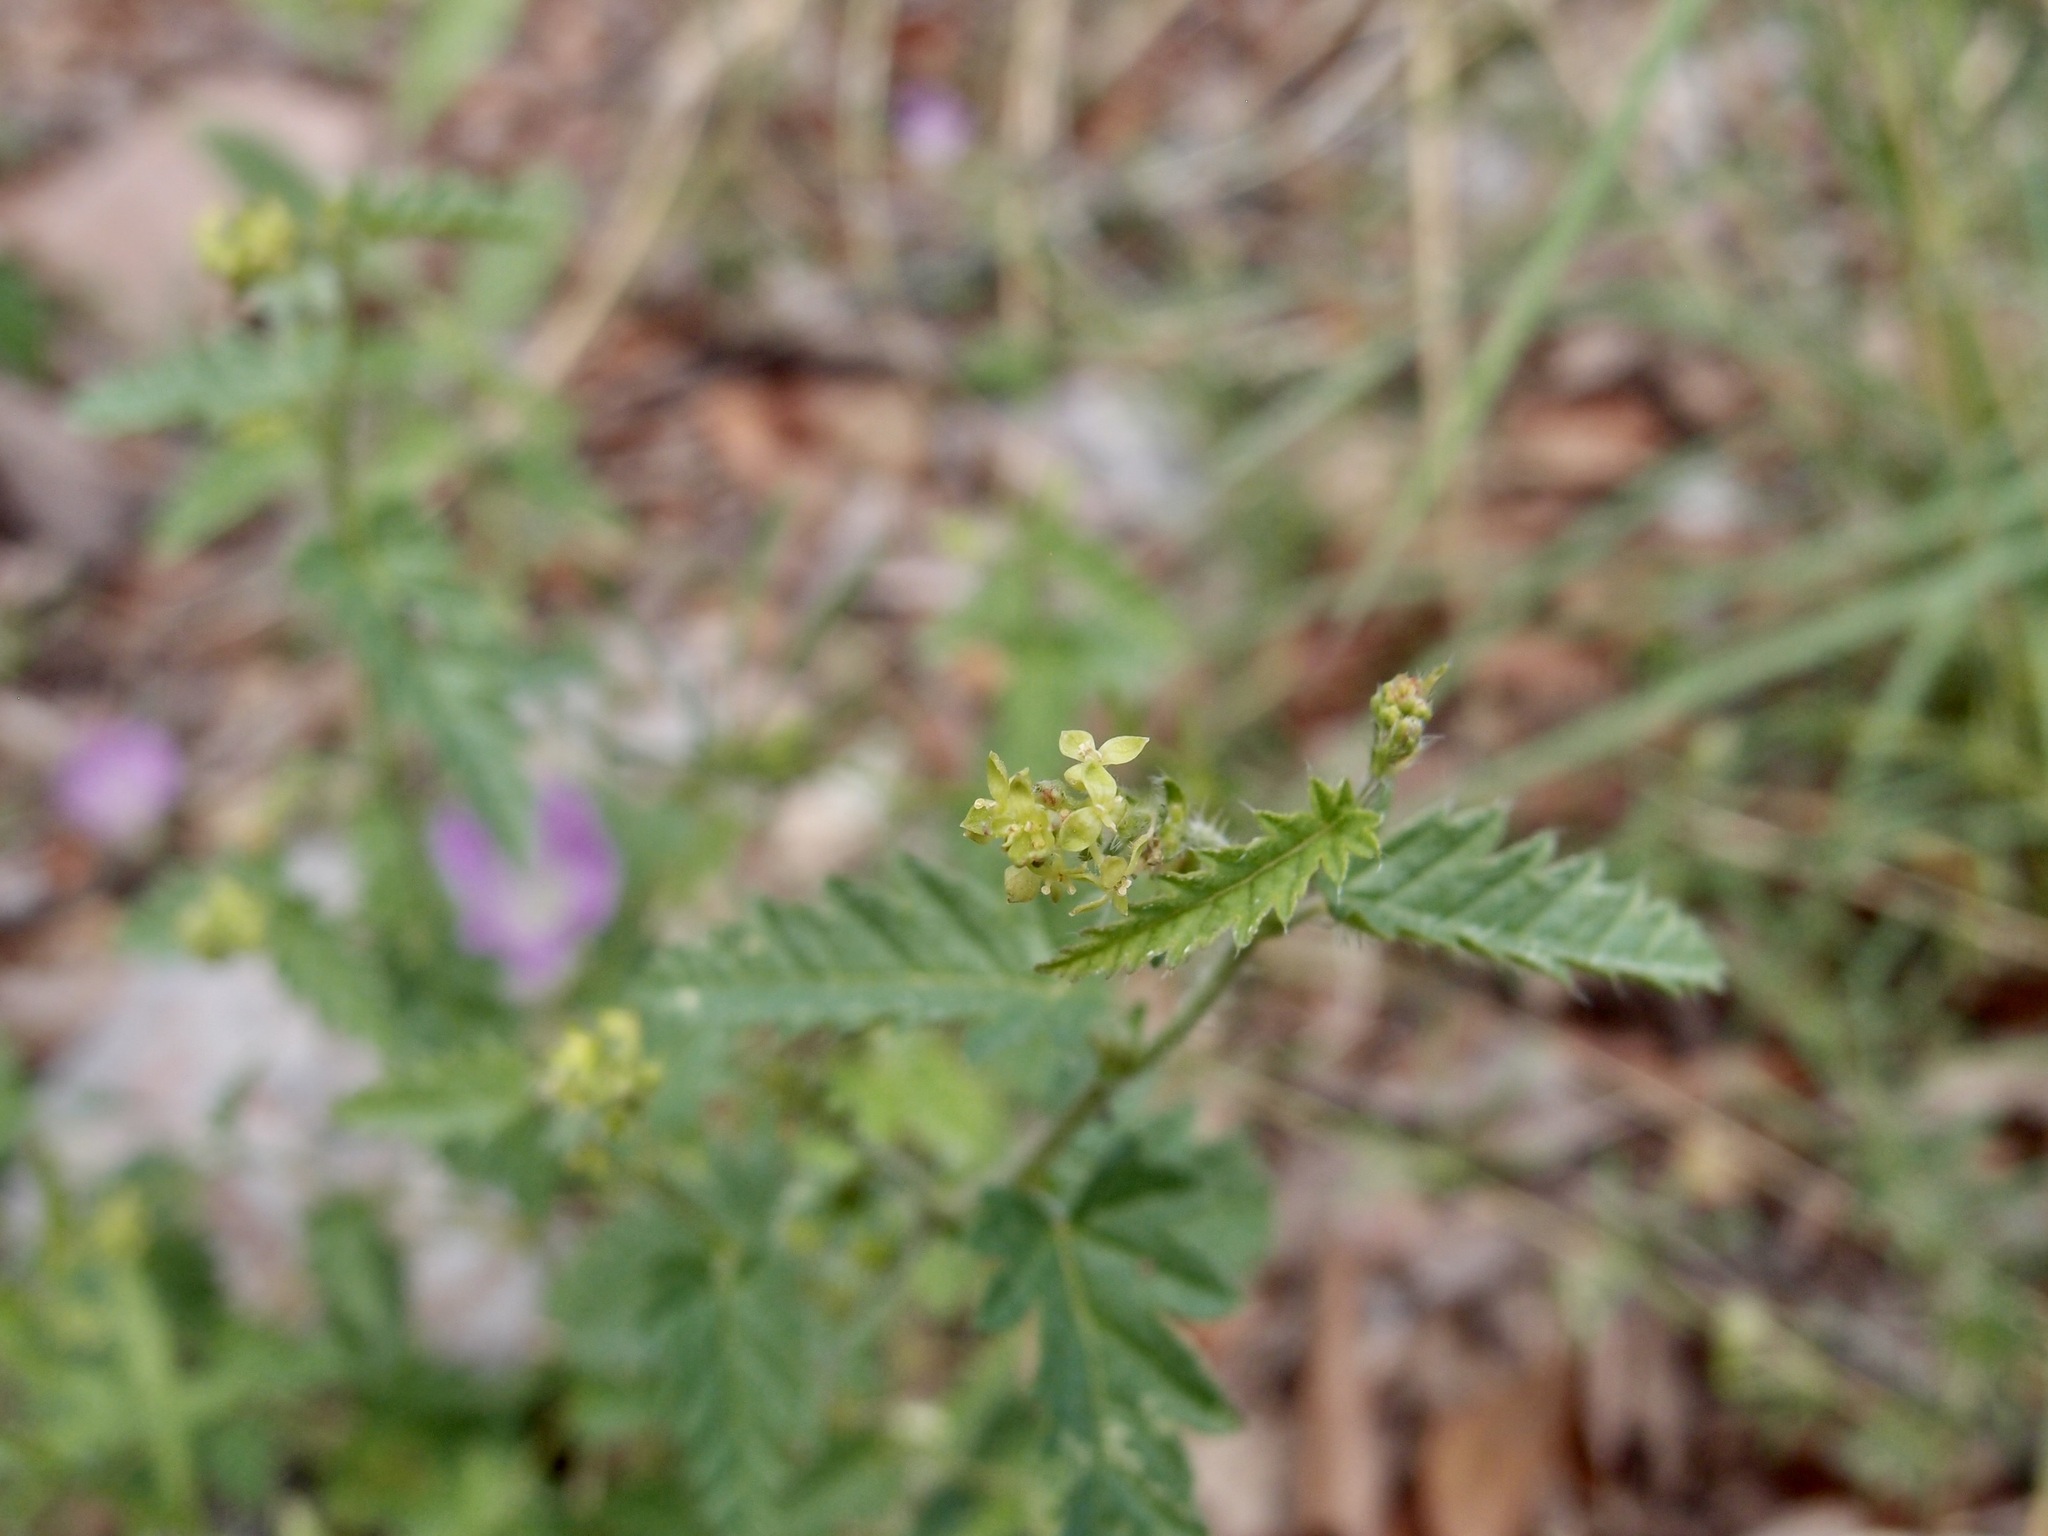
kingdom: Plantae
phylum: Tracheophyta
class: Magnoliopsida
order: Malpighiales
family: Euphorbiaceae
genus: Tragia
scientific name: Tragia nepetifolia
